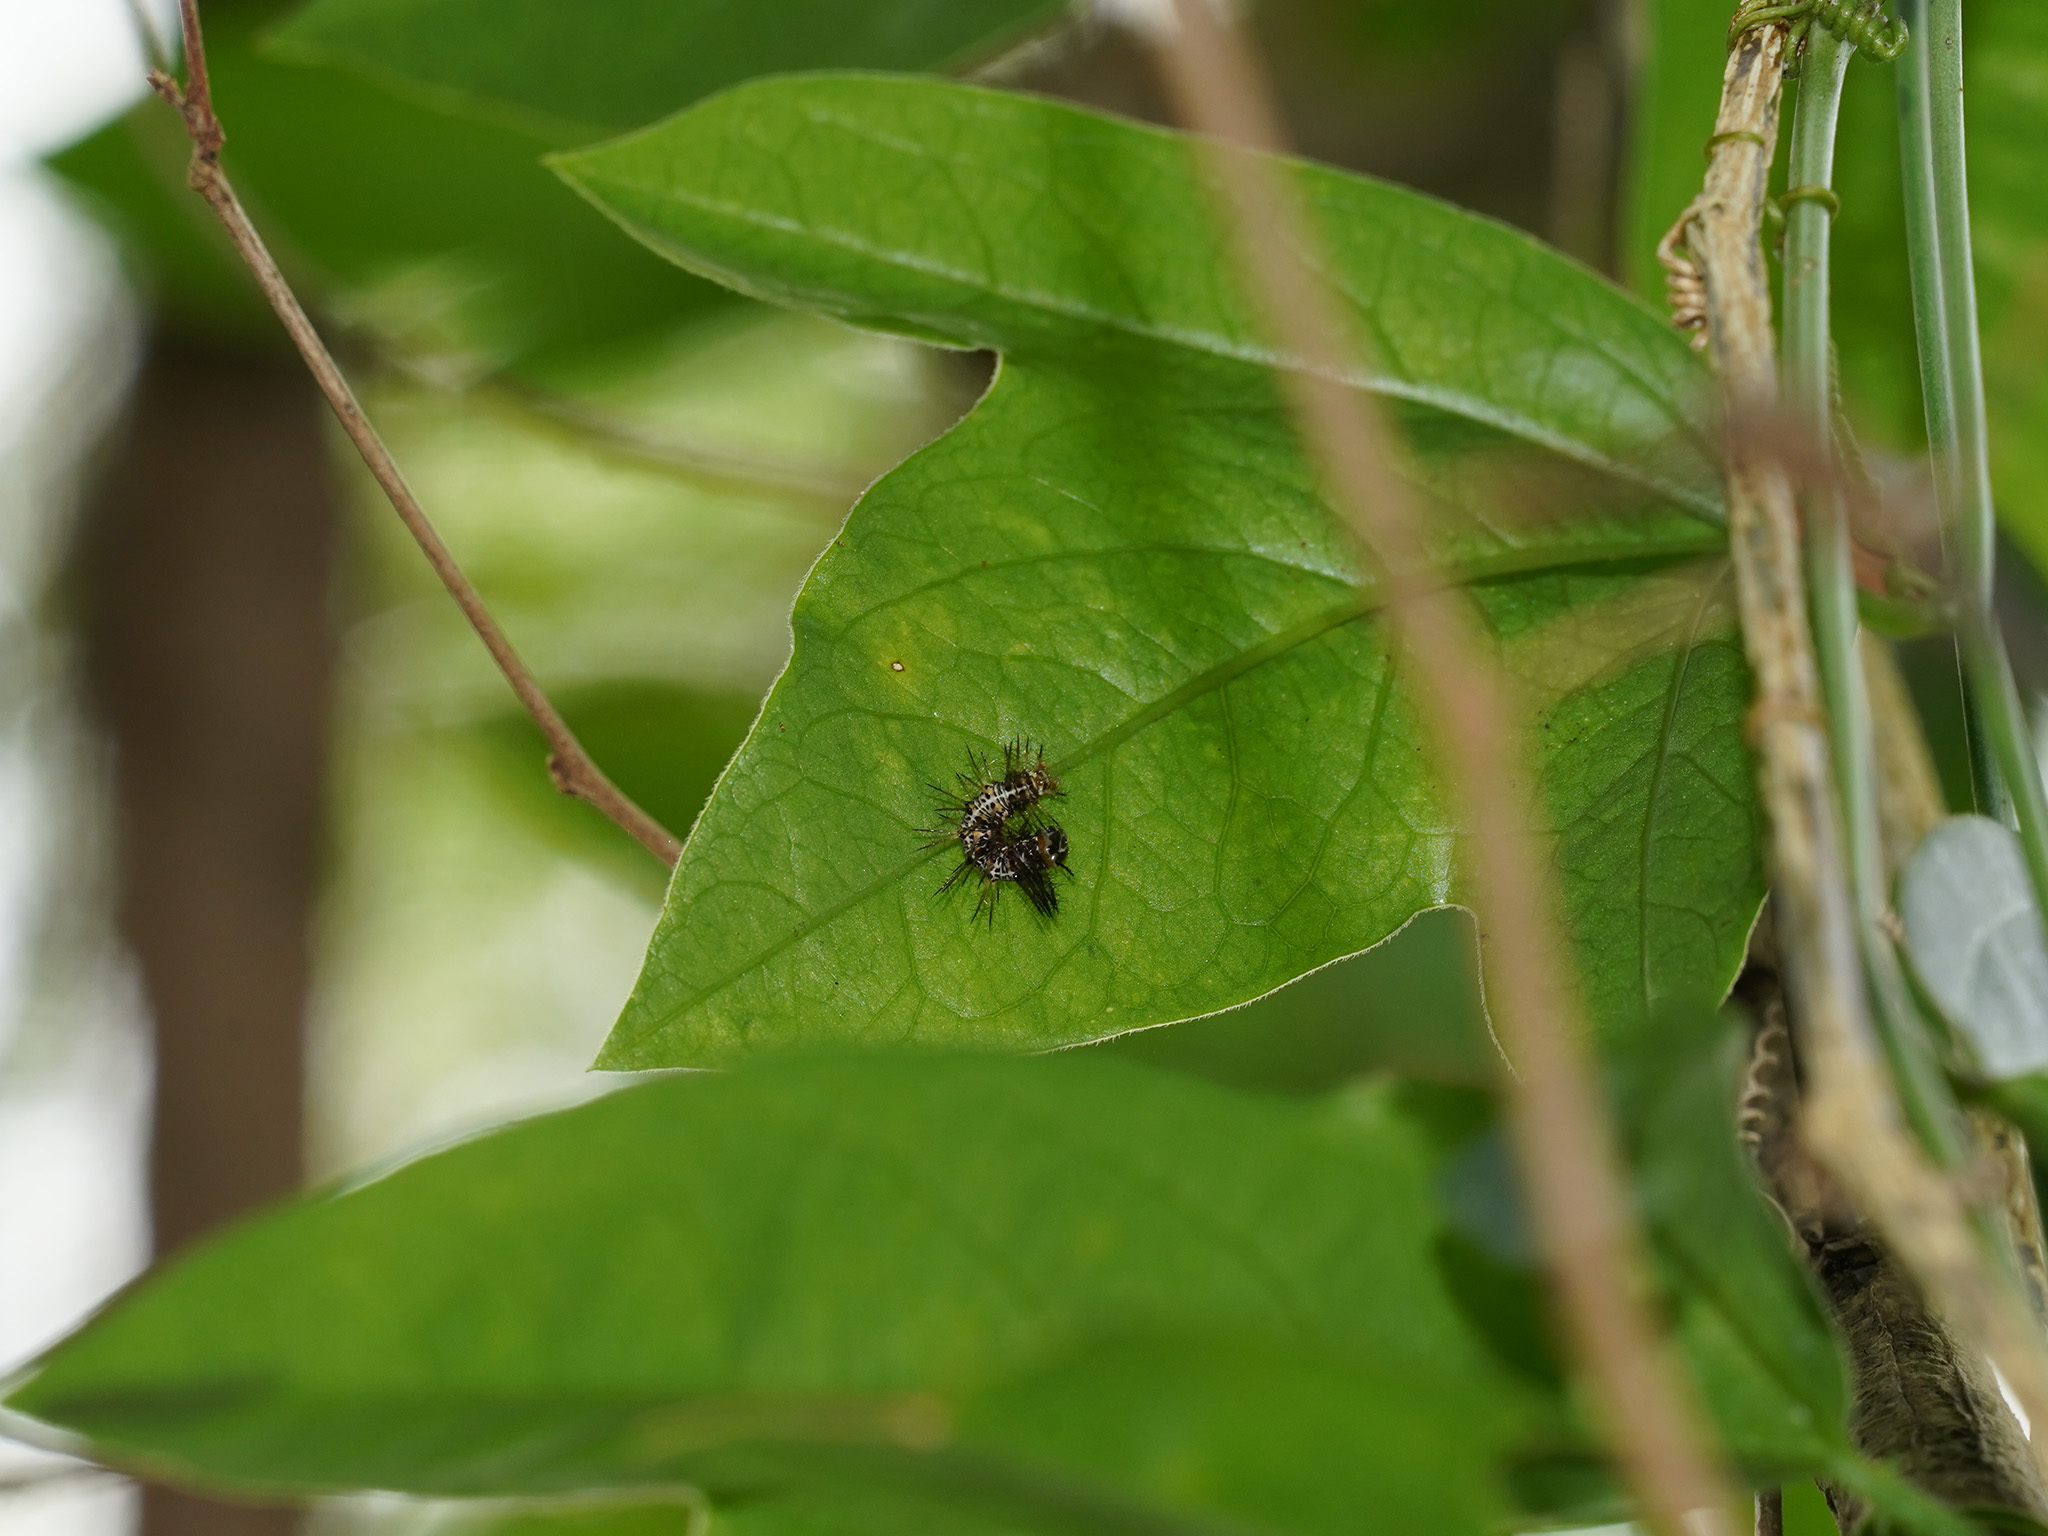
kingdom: Animalia
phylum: Arthropoda
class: Insecta
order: Lepidoptera
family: Nymphalidae
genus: Dryas
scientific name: Dryas iulia
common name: Flambeau
